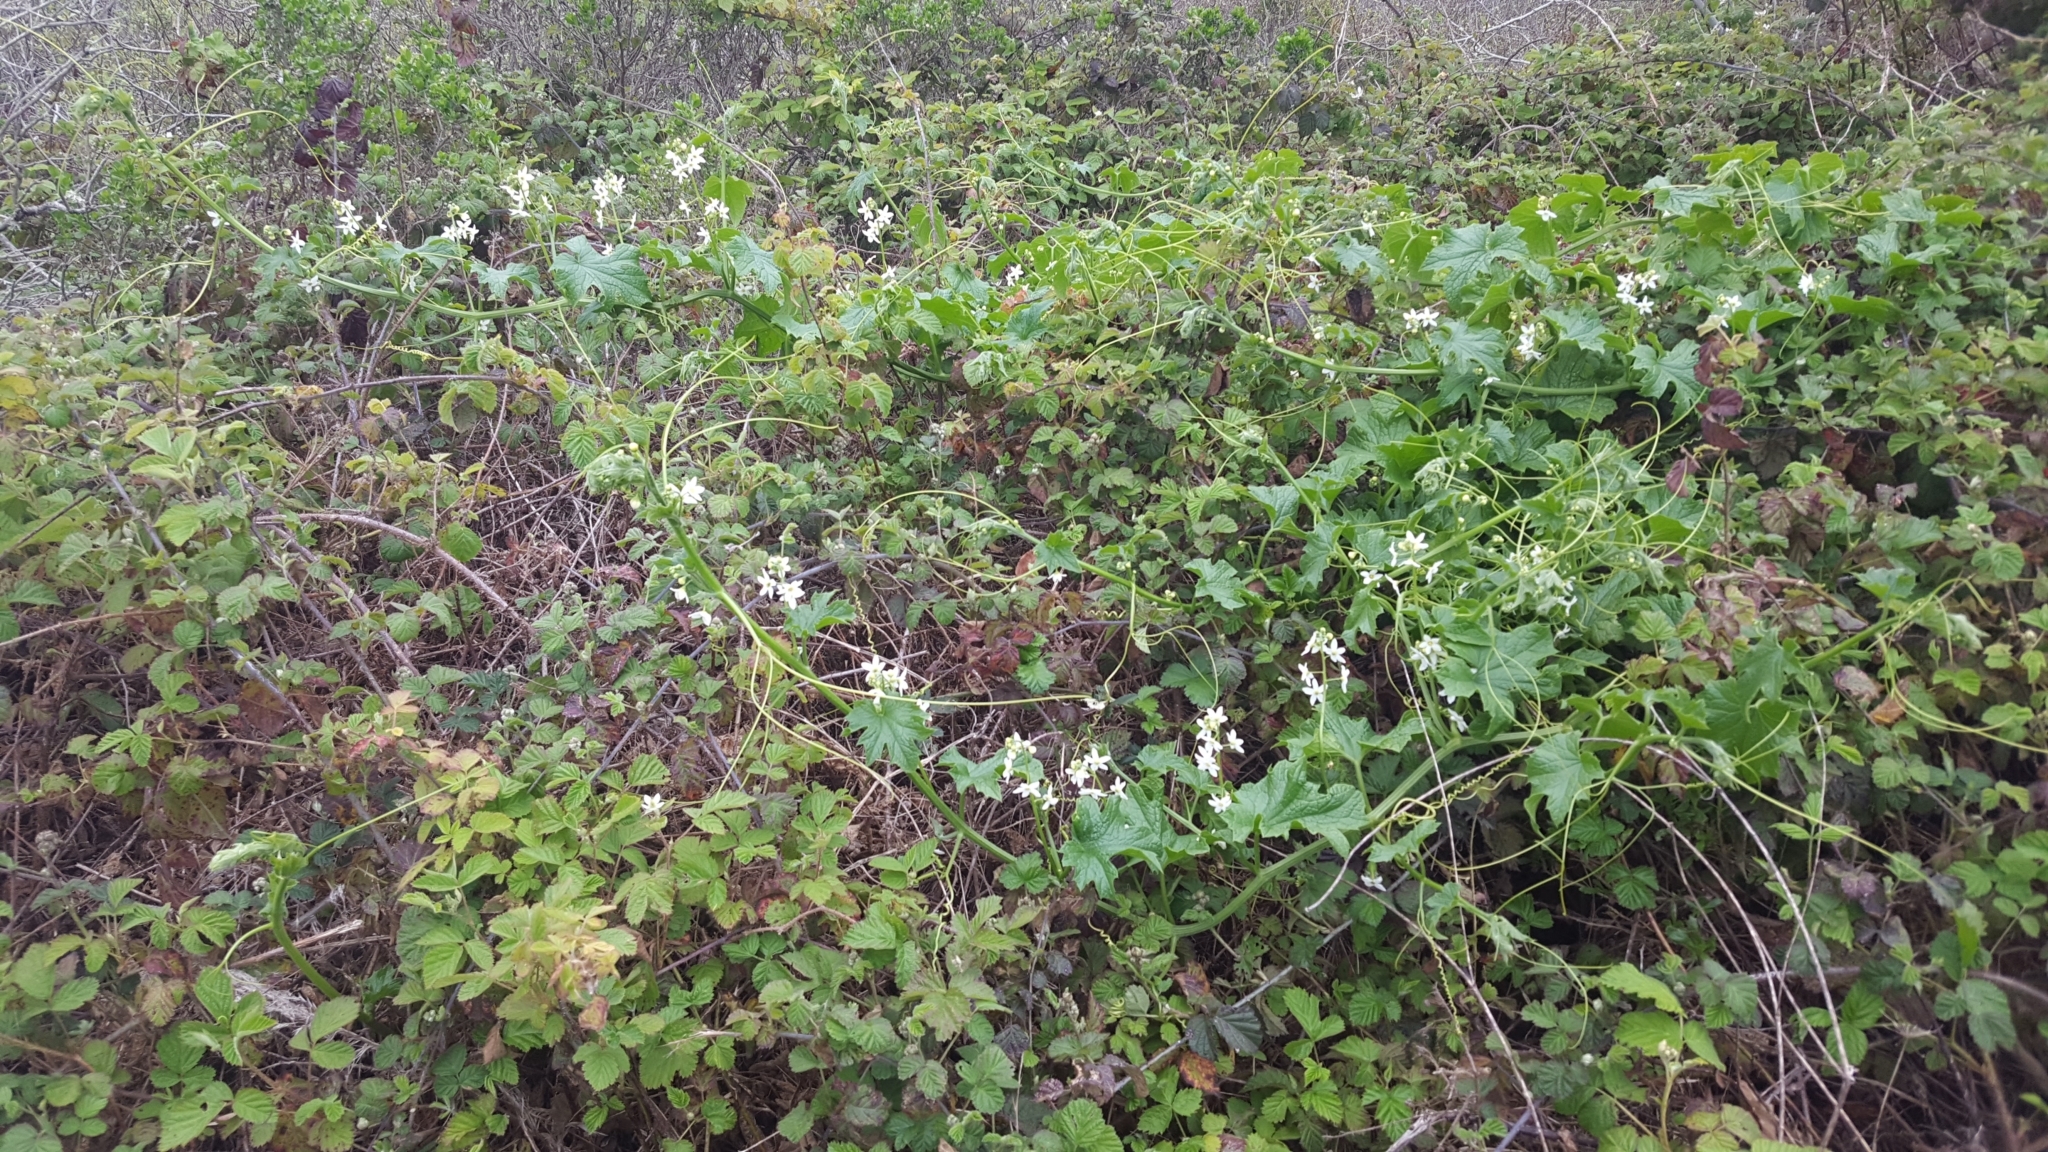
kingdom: Plantae
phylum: Tracheophyta
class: Magnoliopsida
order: Cucurbitales
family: Cucurbitaceae
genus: Marah
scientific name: Marah oregana
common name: Coastal manroot
